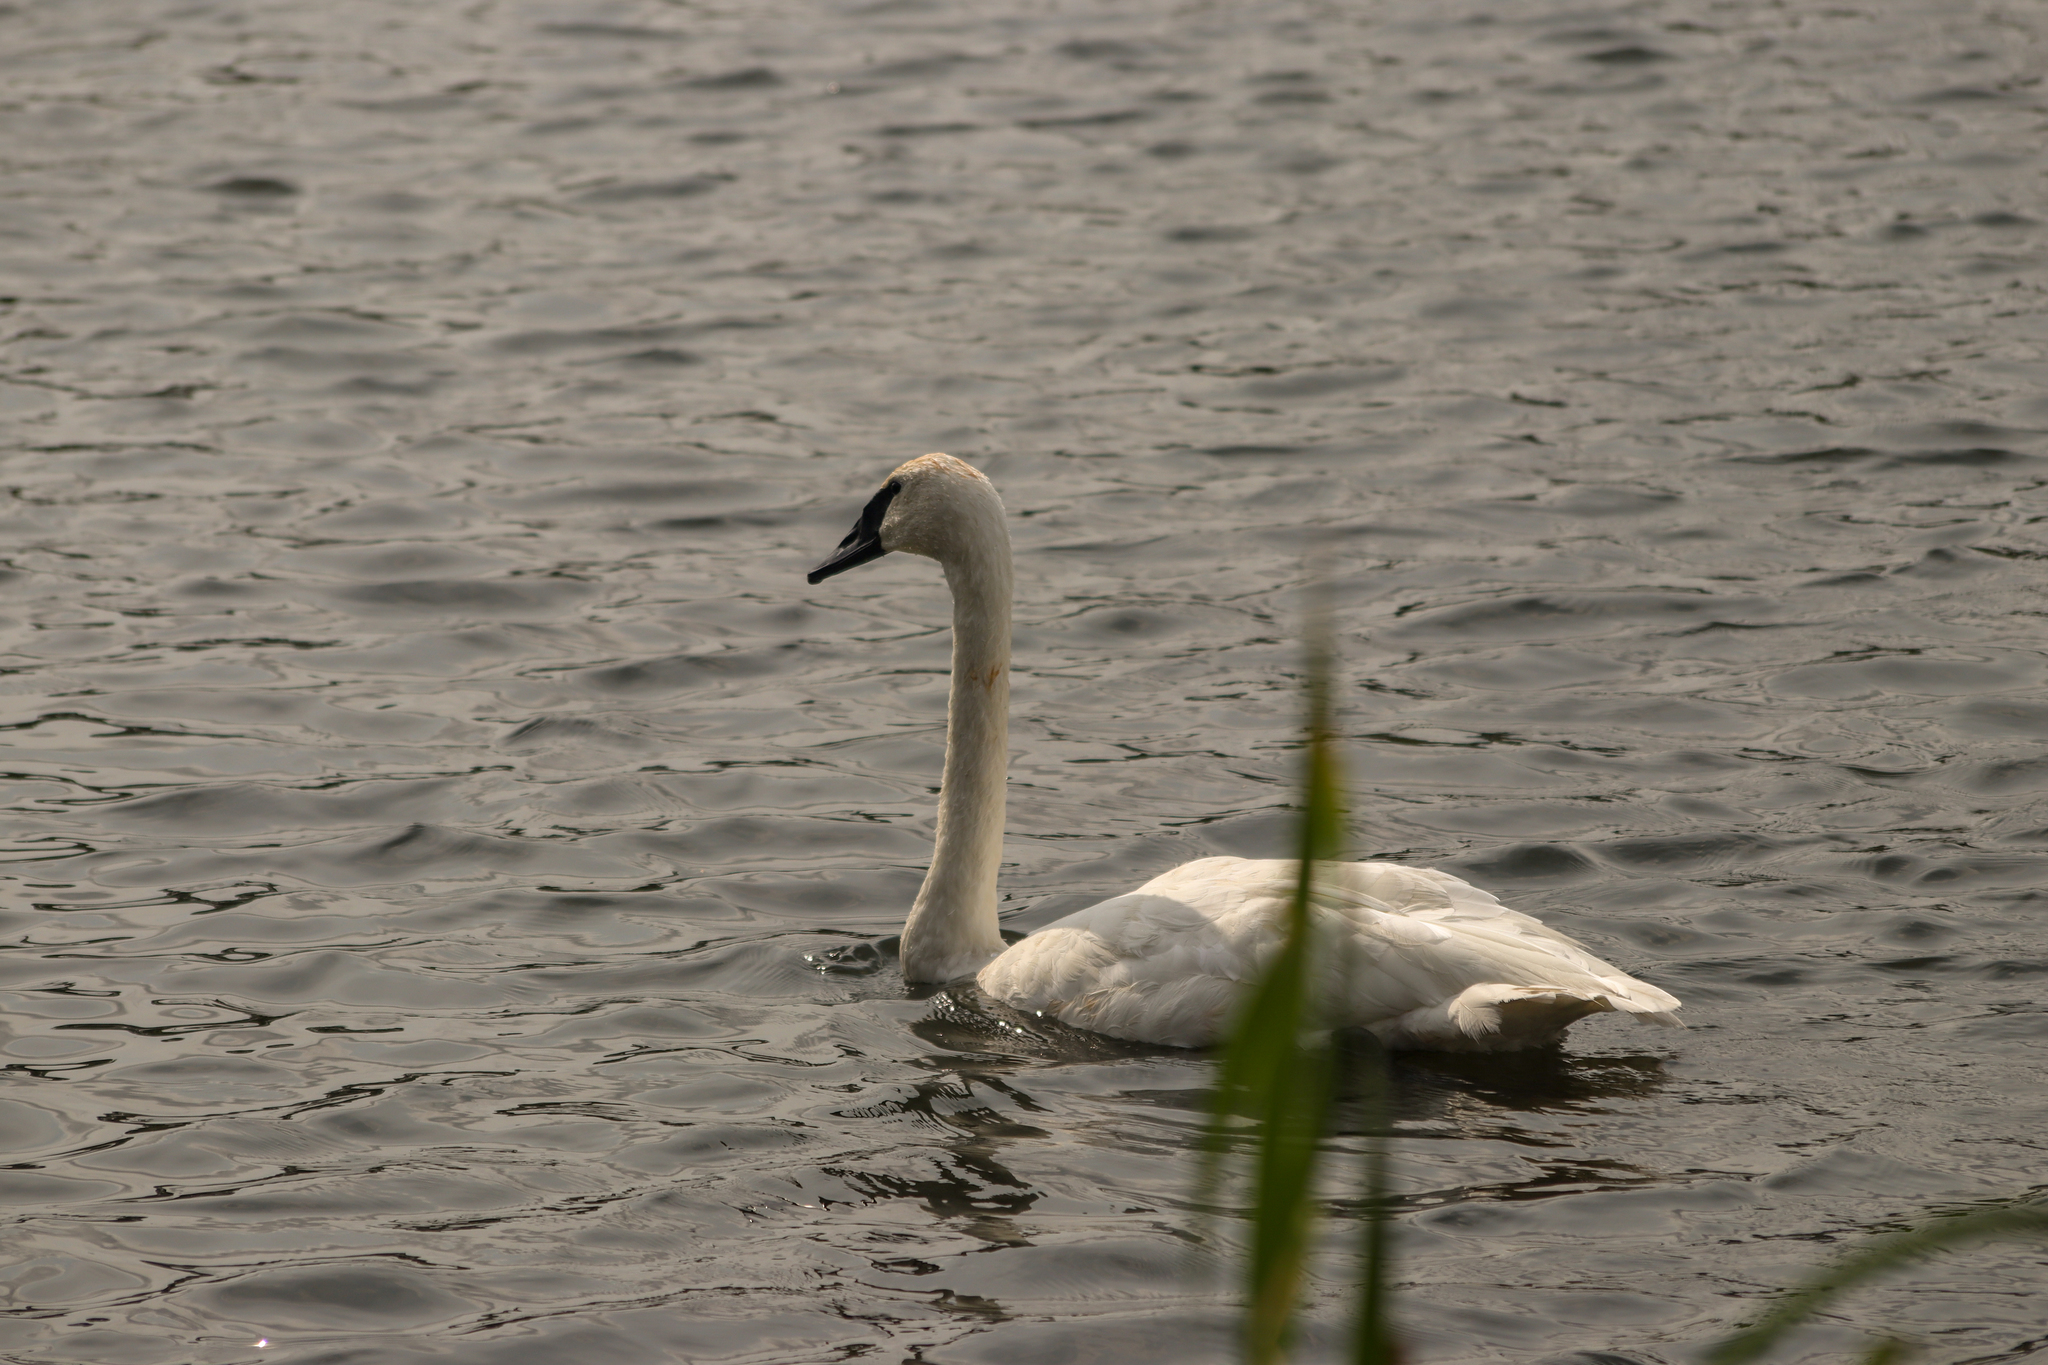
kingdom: Animalia
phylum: Chordata
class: Aves
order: Anseriformes
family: Anatidae
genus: Cygnus
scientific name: Cygnus buccinator
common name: Trumpeter swan
